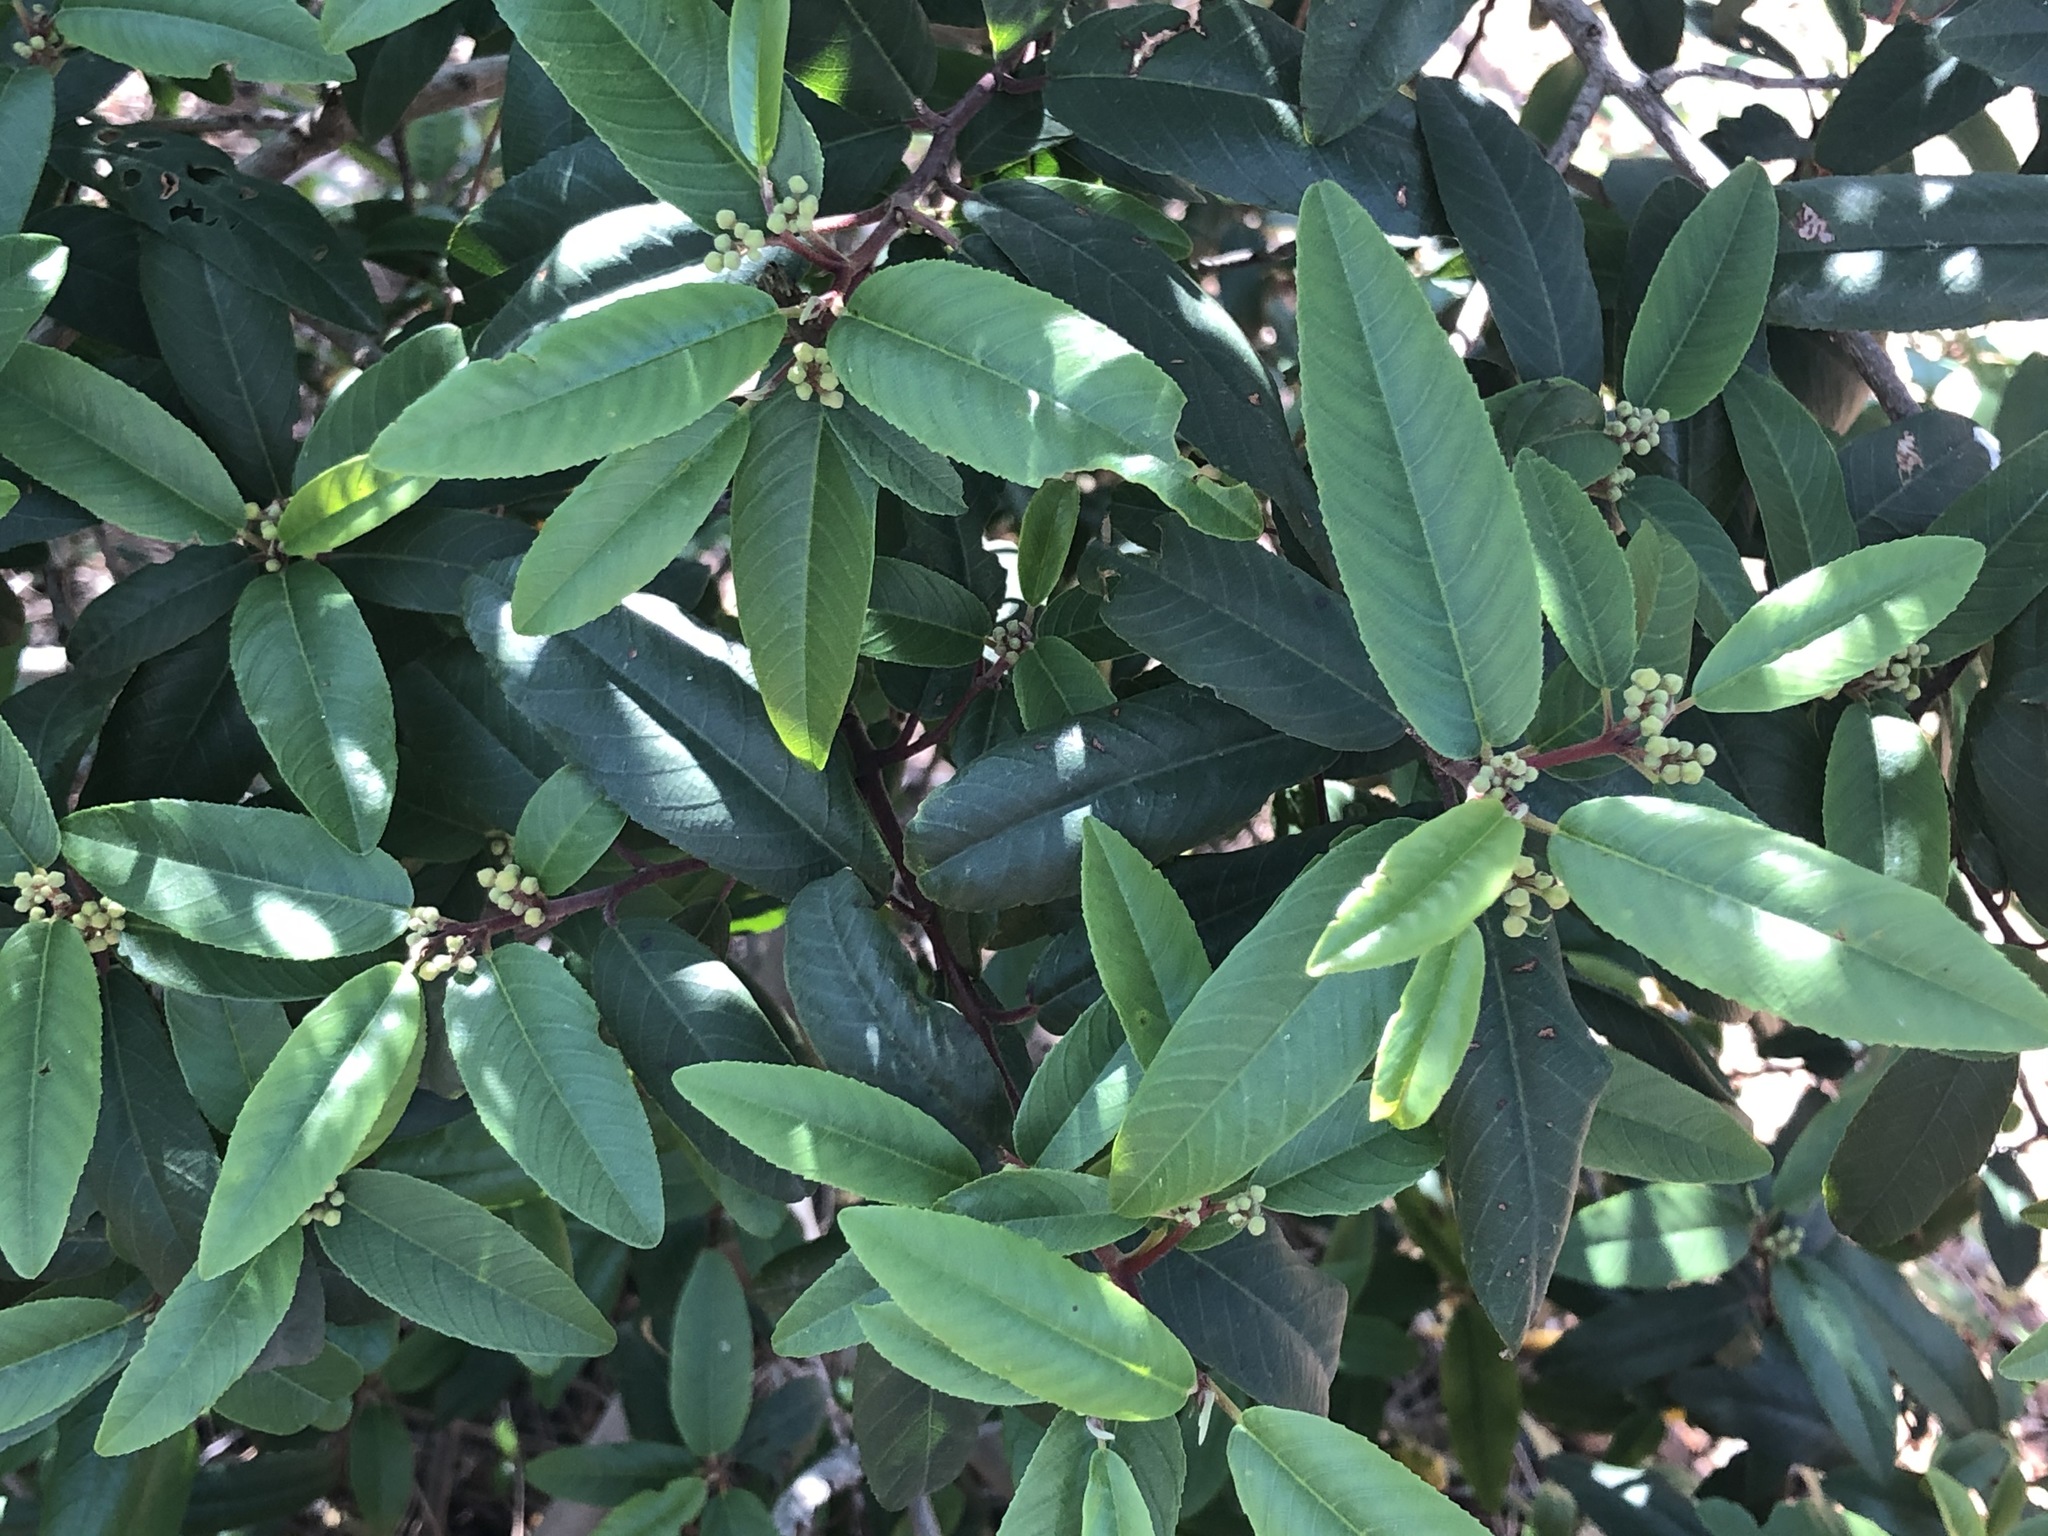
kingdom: Plantae
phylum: Tracheophyta
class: Magnoliopsida
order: Rosales
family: Rhamnaceae
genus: Frangula
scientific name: Frangula californica
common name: California buckthorn
